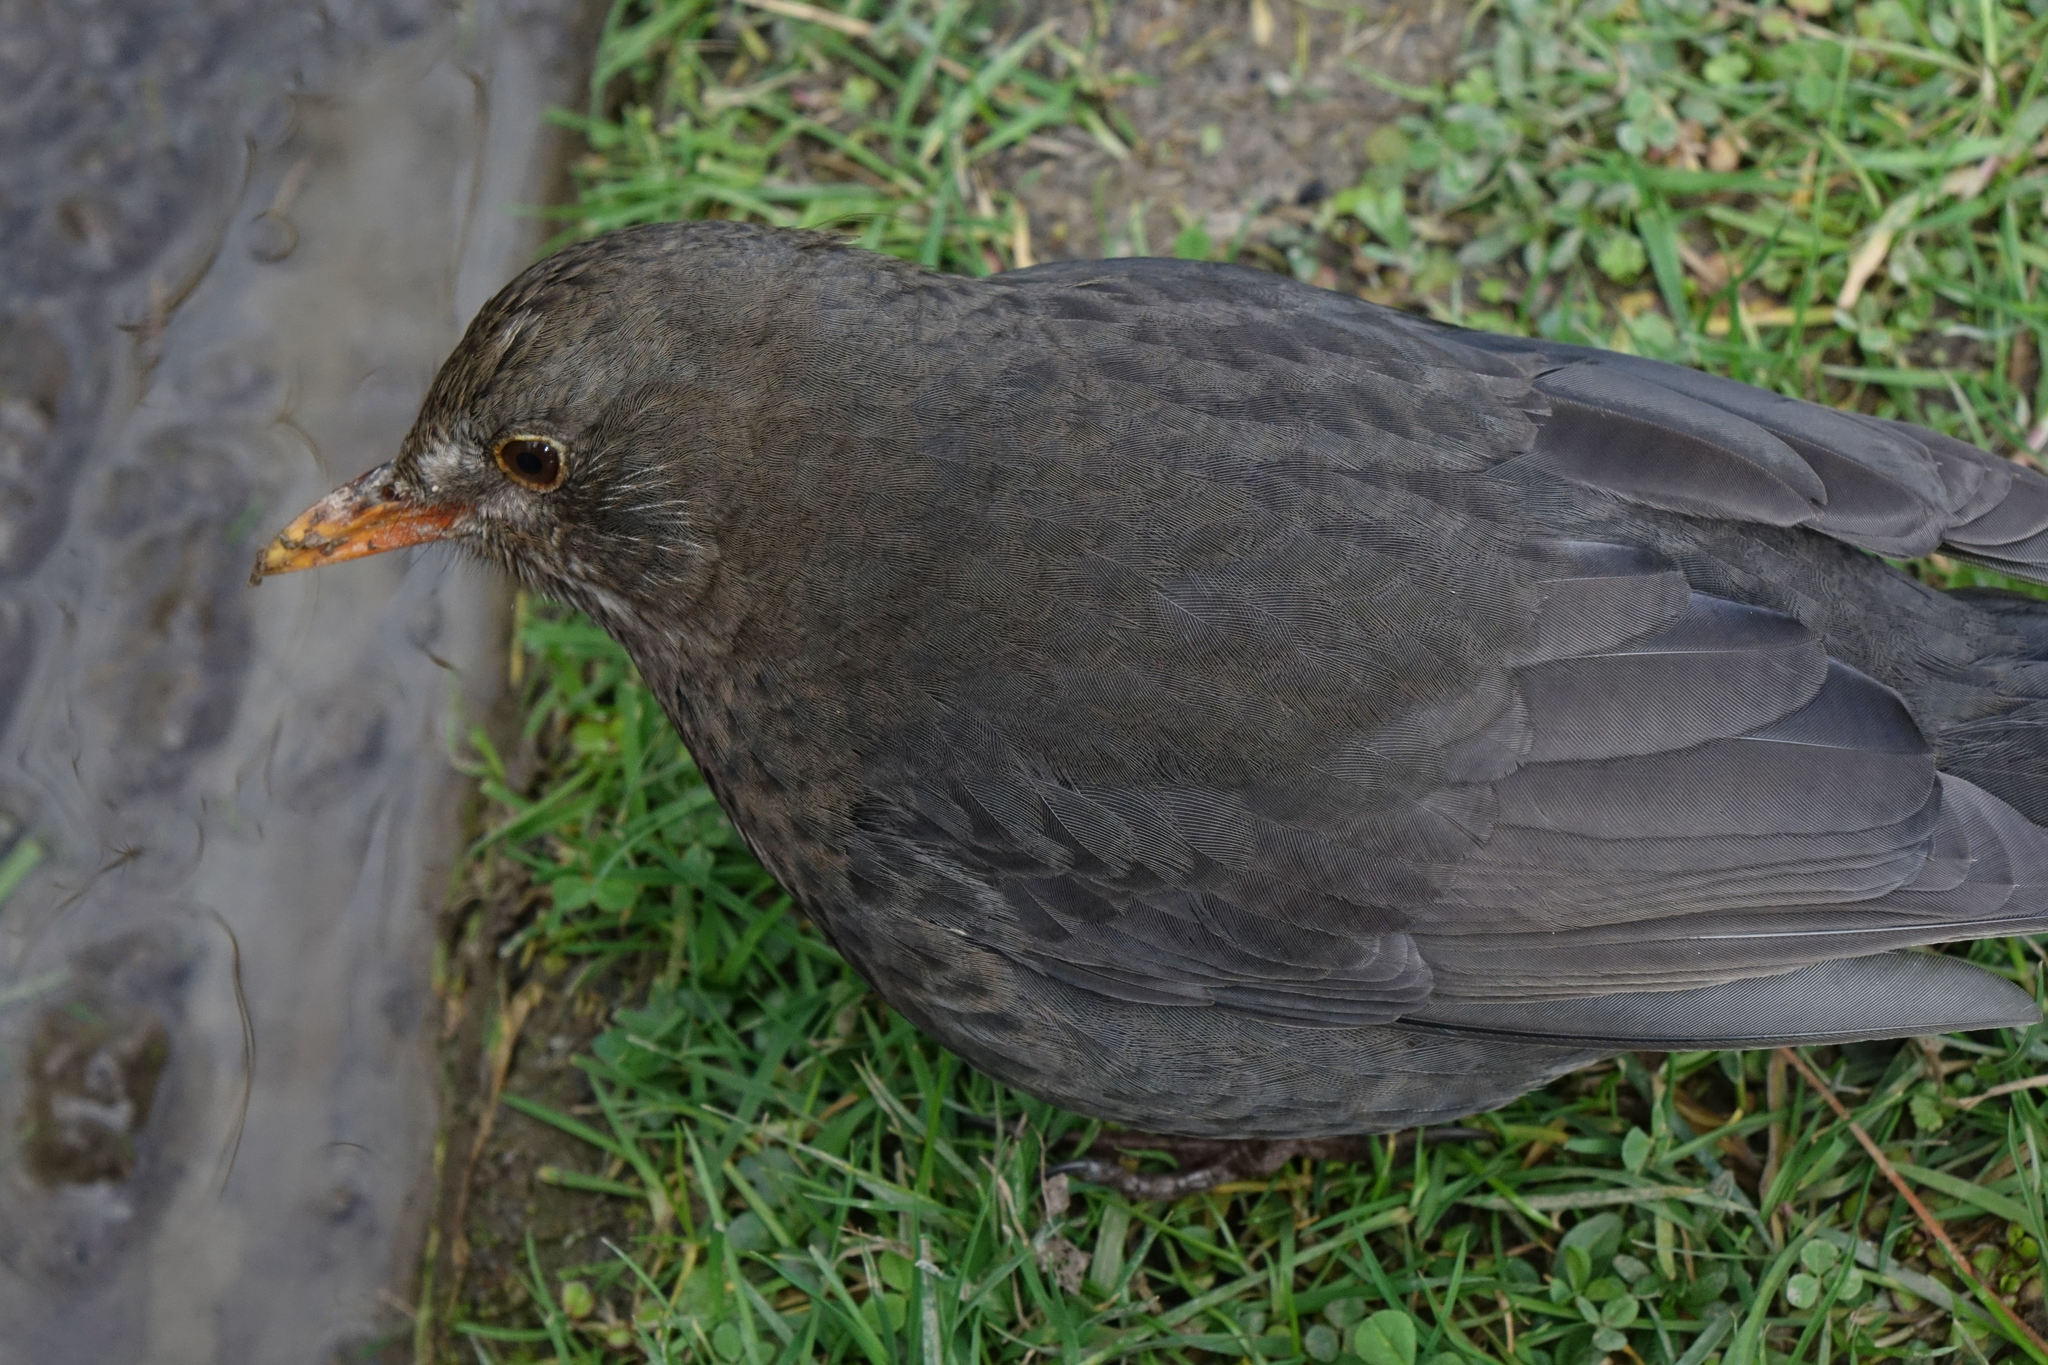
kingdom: Animalia
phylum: Chordata
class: Aves
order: Passeriformes
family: Turdidae
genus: Turdus
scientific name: Turdus merula
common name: Common blackbird
